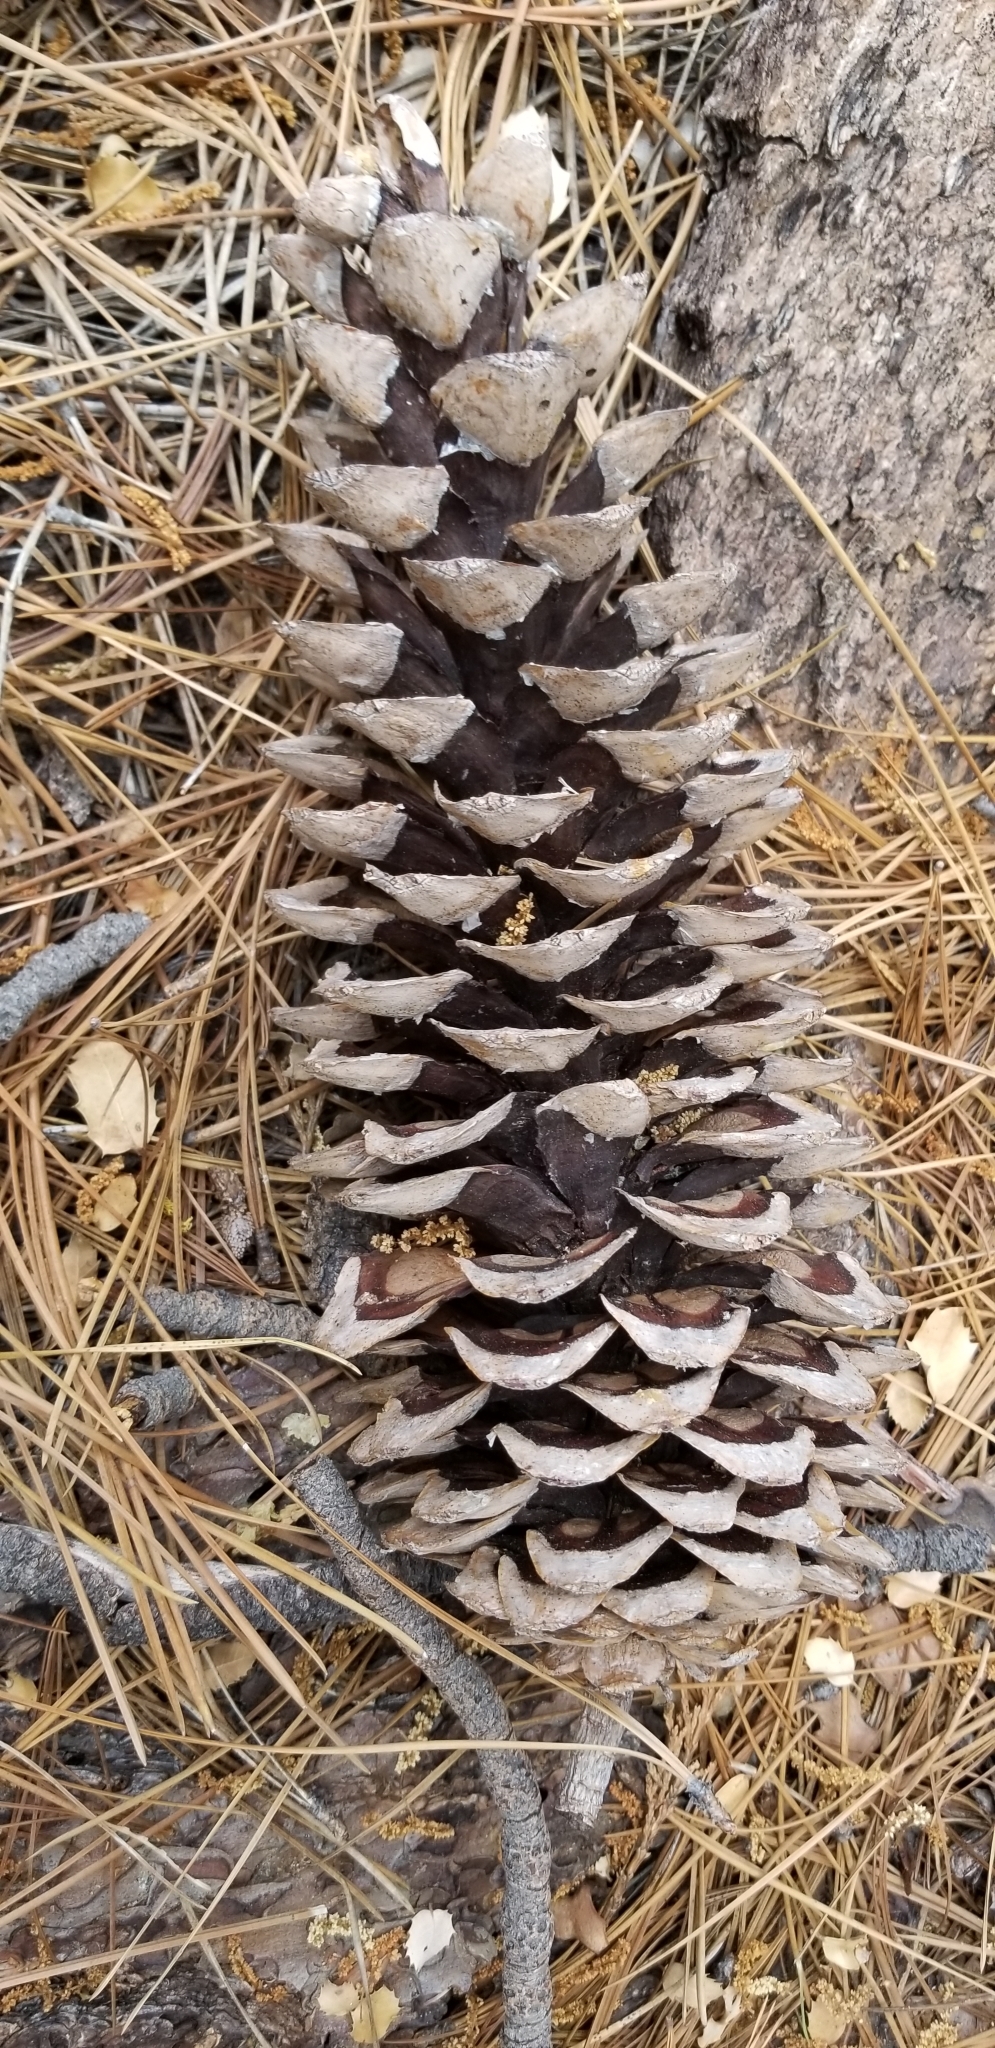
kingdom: Plantae
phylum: Tracheophyta
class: Pinopsida
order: Pinales
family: Pinaceae
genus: Pinus
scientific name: Pinus lambertiana
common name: Sugar pine
